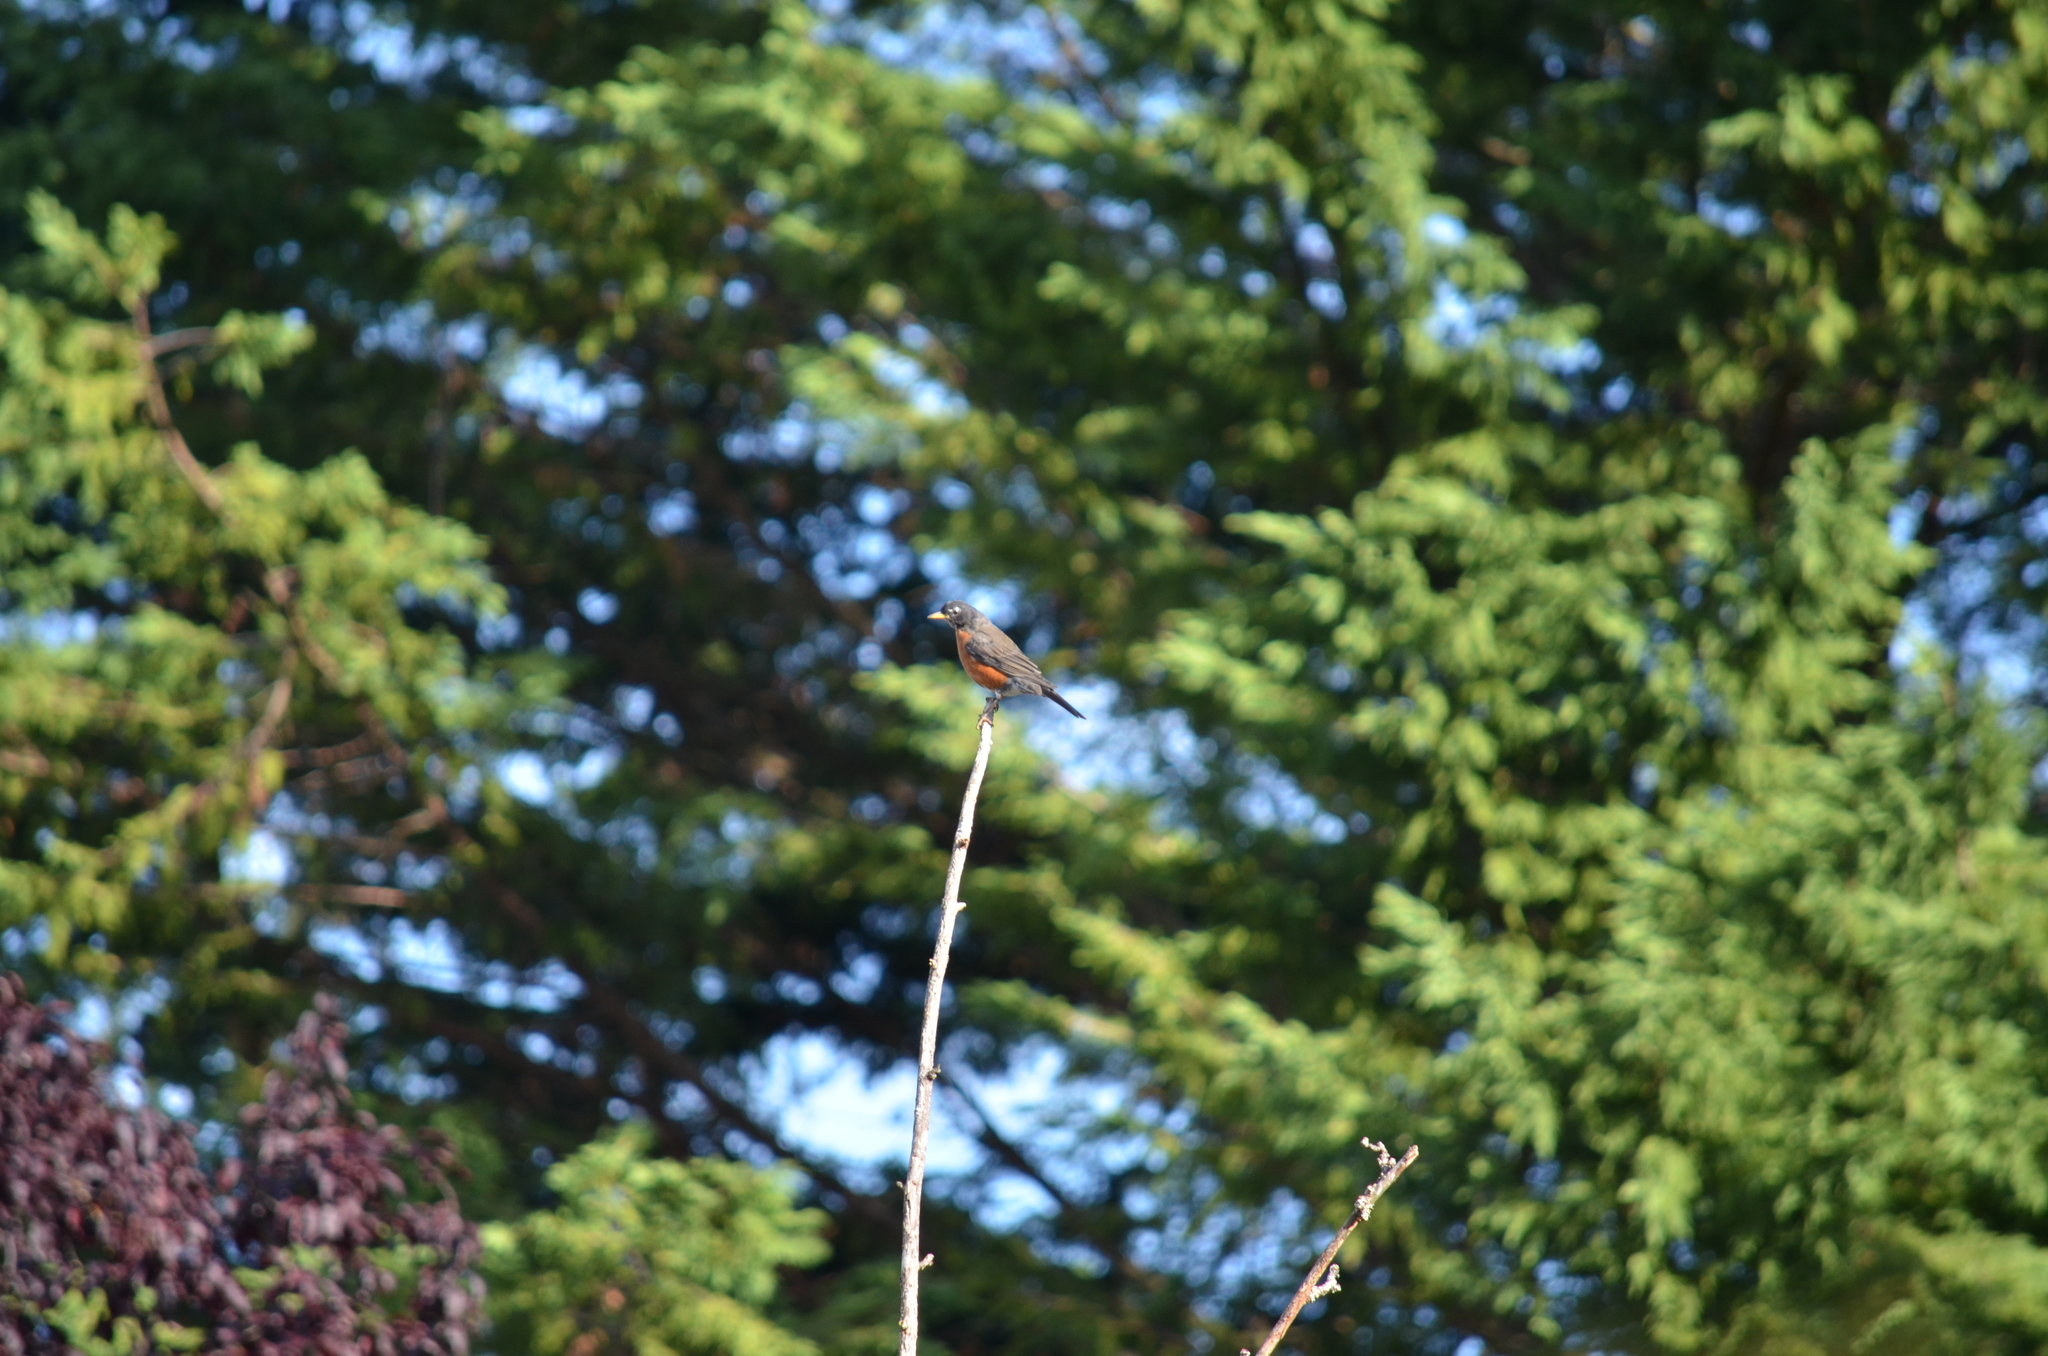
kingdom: Animalia
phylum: Chordata
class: Aves
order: Passeriformes
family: Turdidae
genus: Turdus
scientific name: Turdus migratorius
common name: American robin
